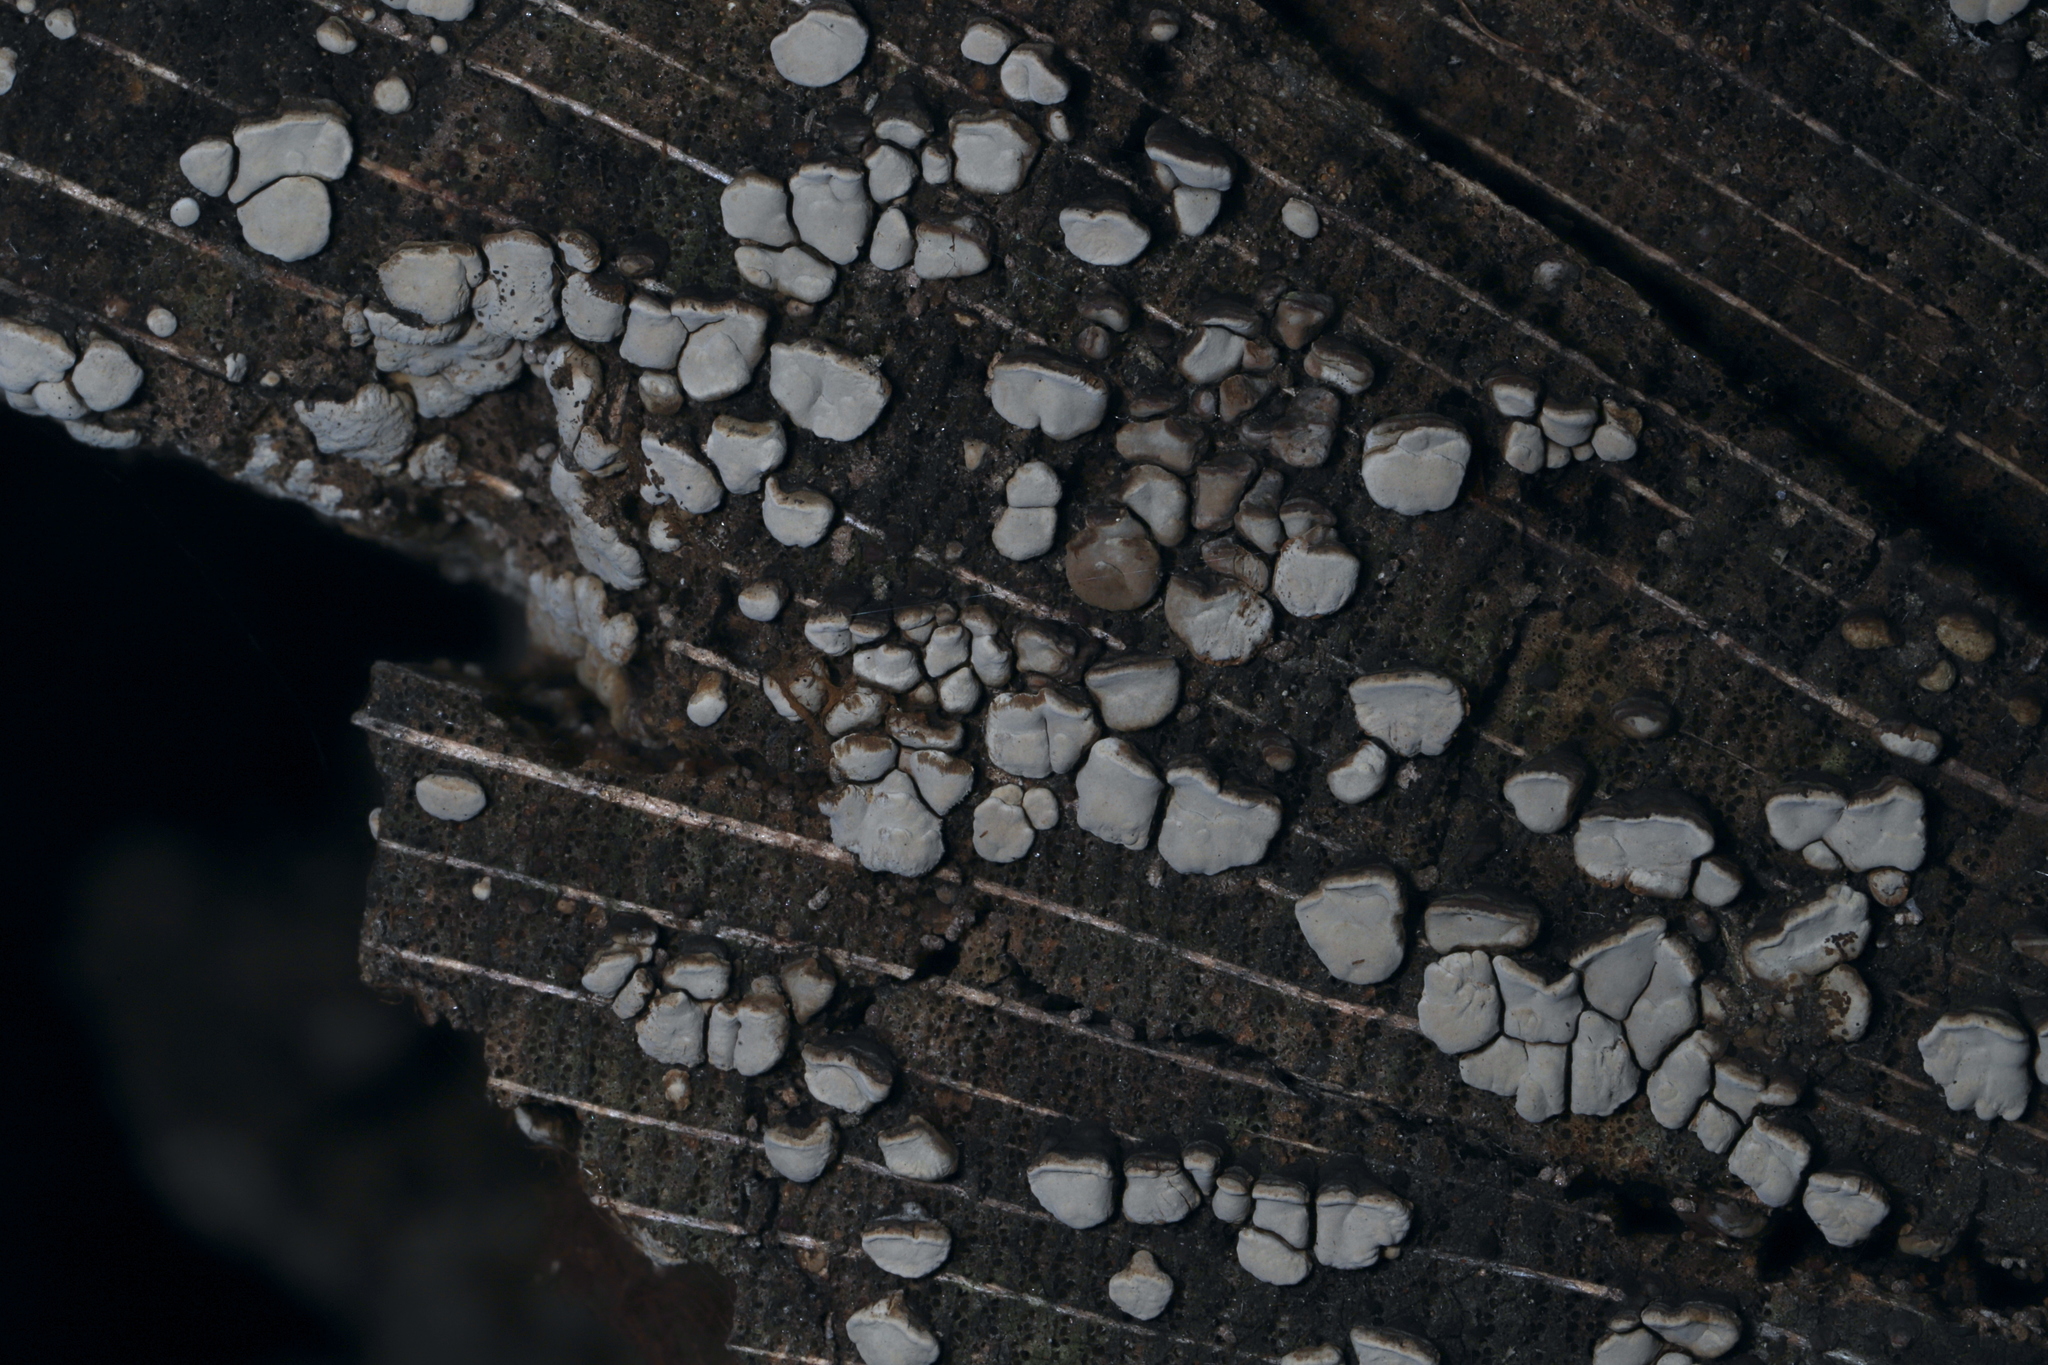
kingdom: Fungi
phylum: Basidiomycota
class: Agaricomycetes
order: Russulales
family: Stereaceae
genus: Xylobolus
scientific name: Xylobolus frustulatus
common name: Ceramic parchment
